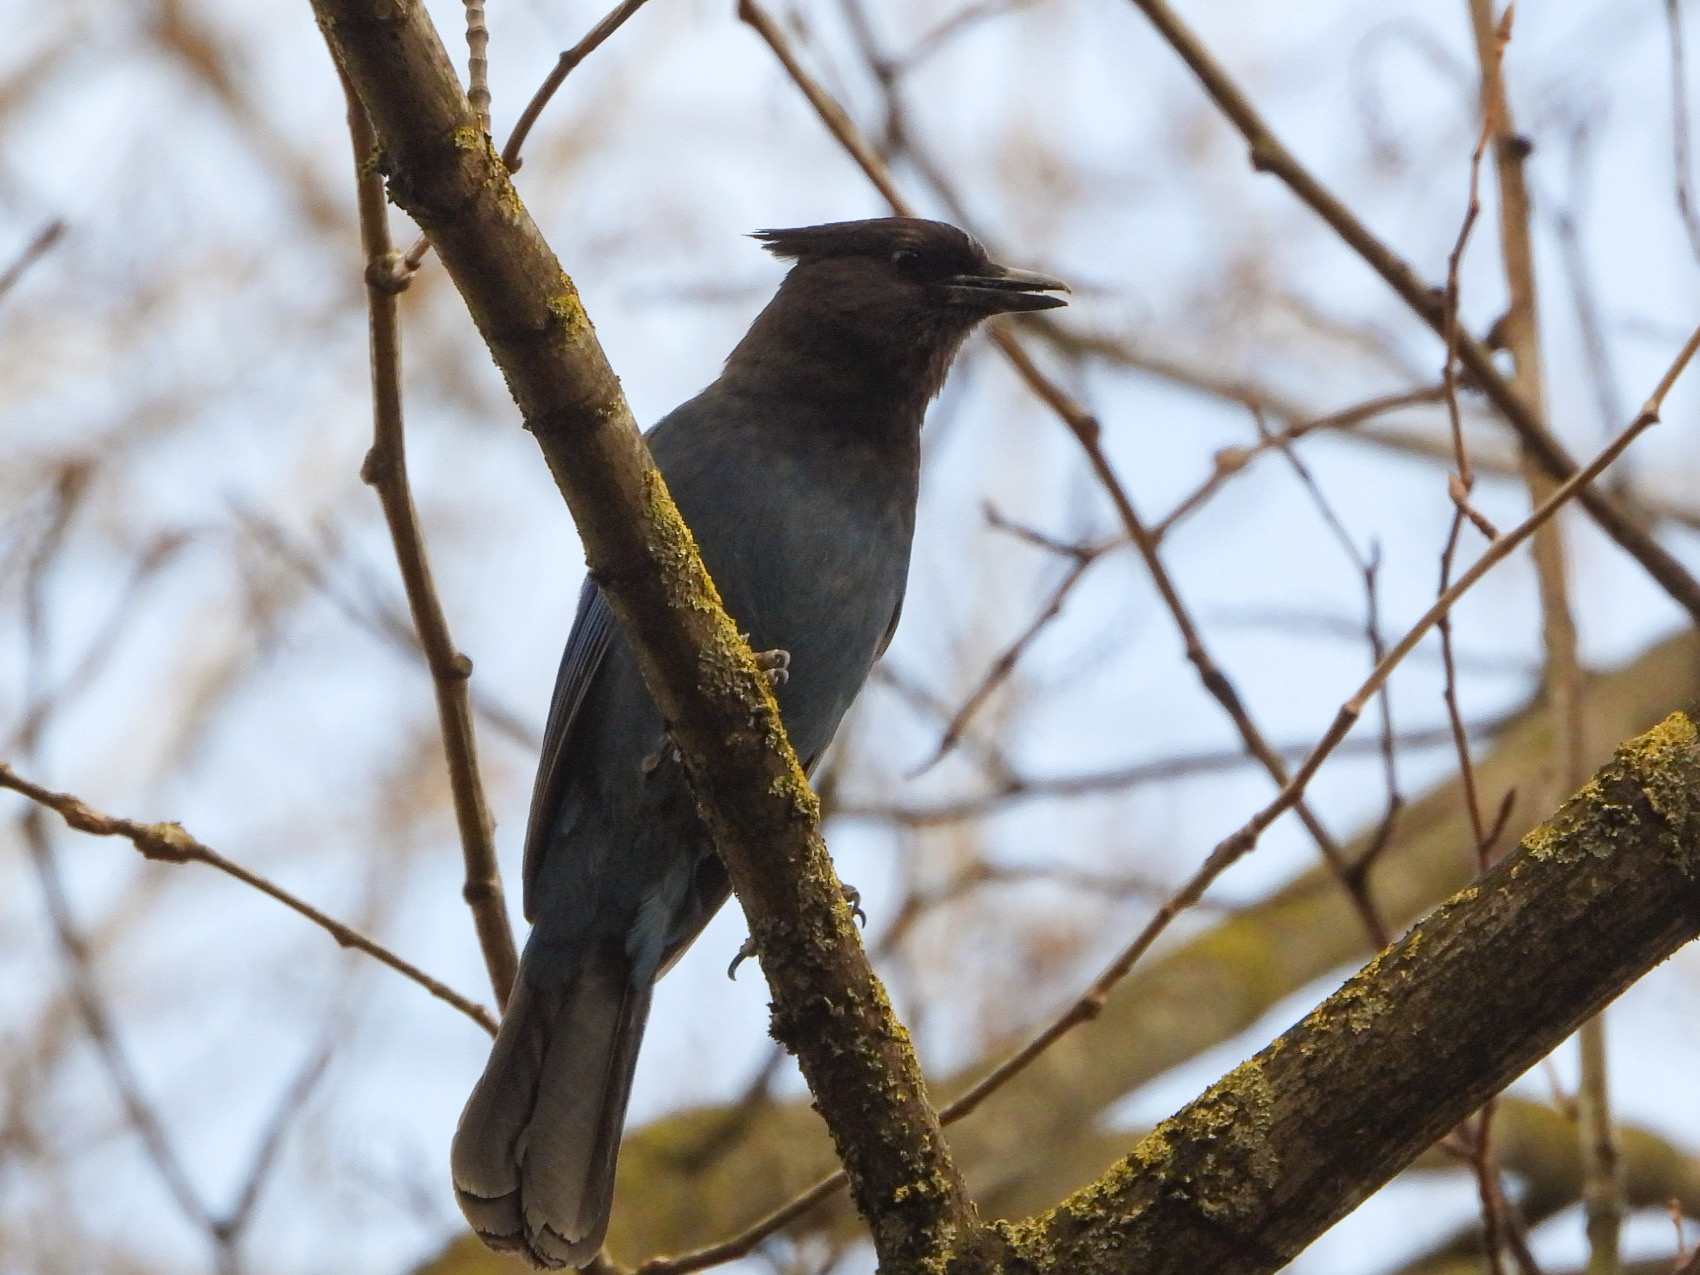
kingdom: Animalia
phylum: Chordata
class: Aves
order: Passeriformes
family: Corvidae
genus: Cyanocitta
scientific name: Cyanocitta stelleri
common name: Steller's jay
